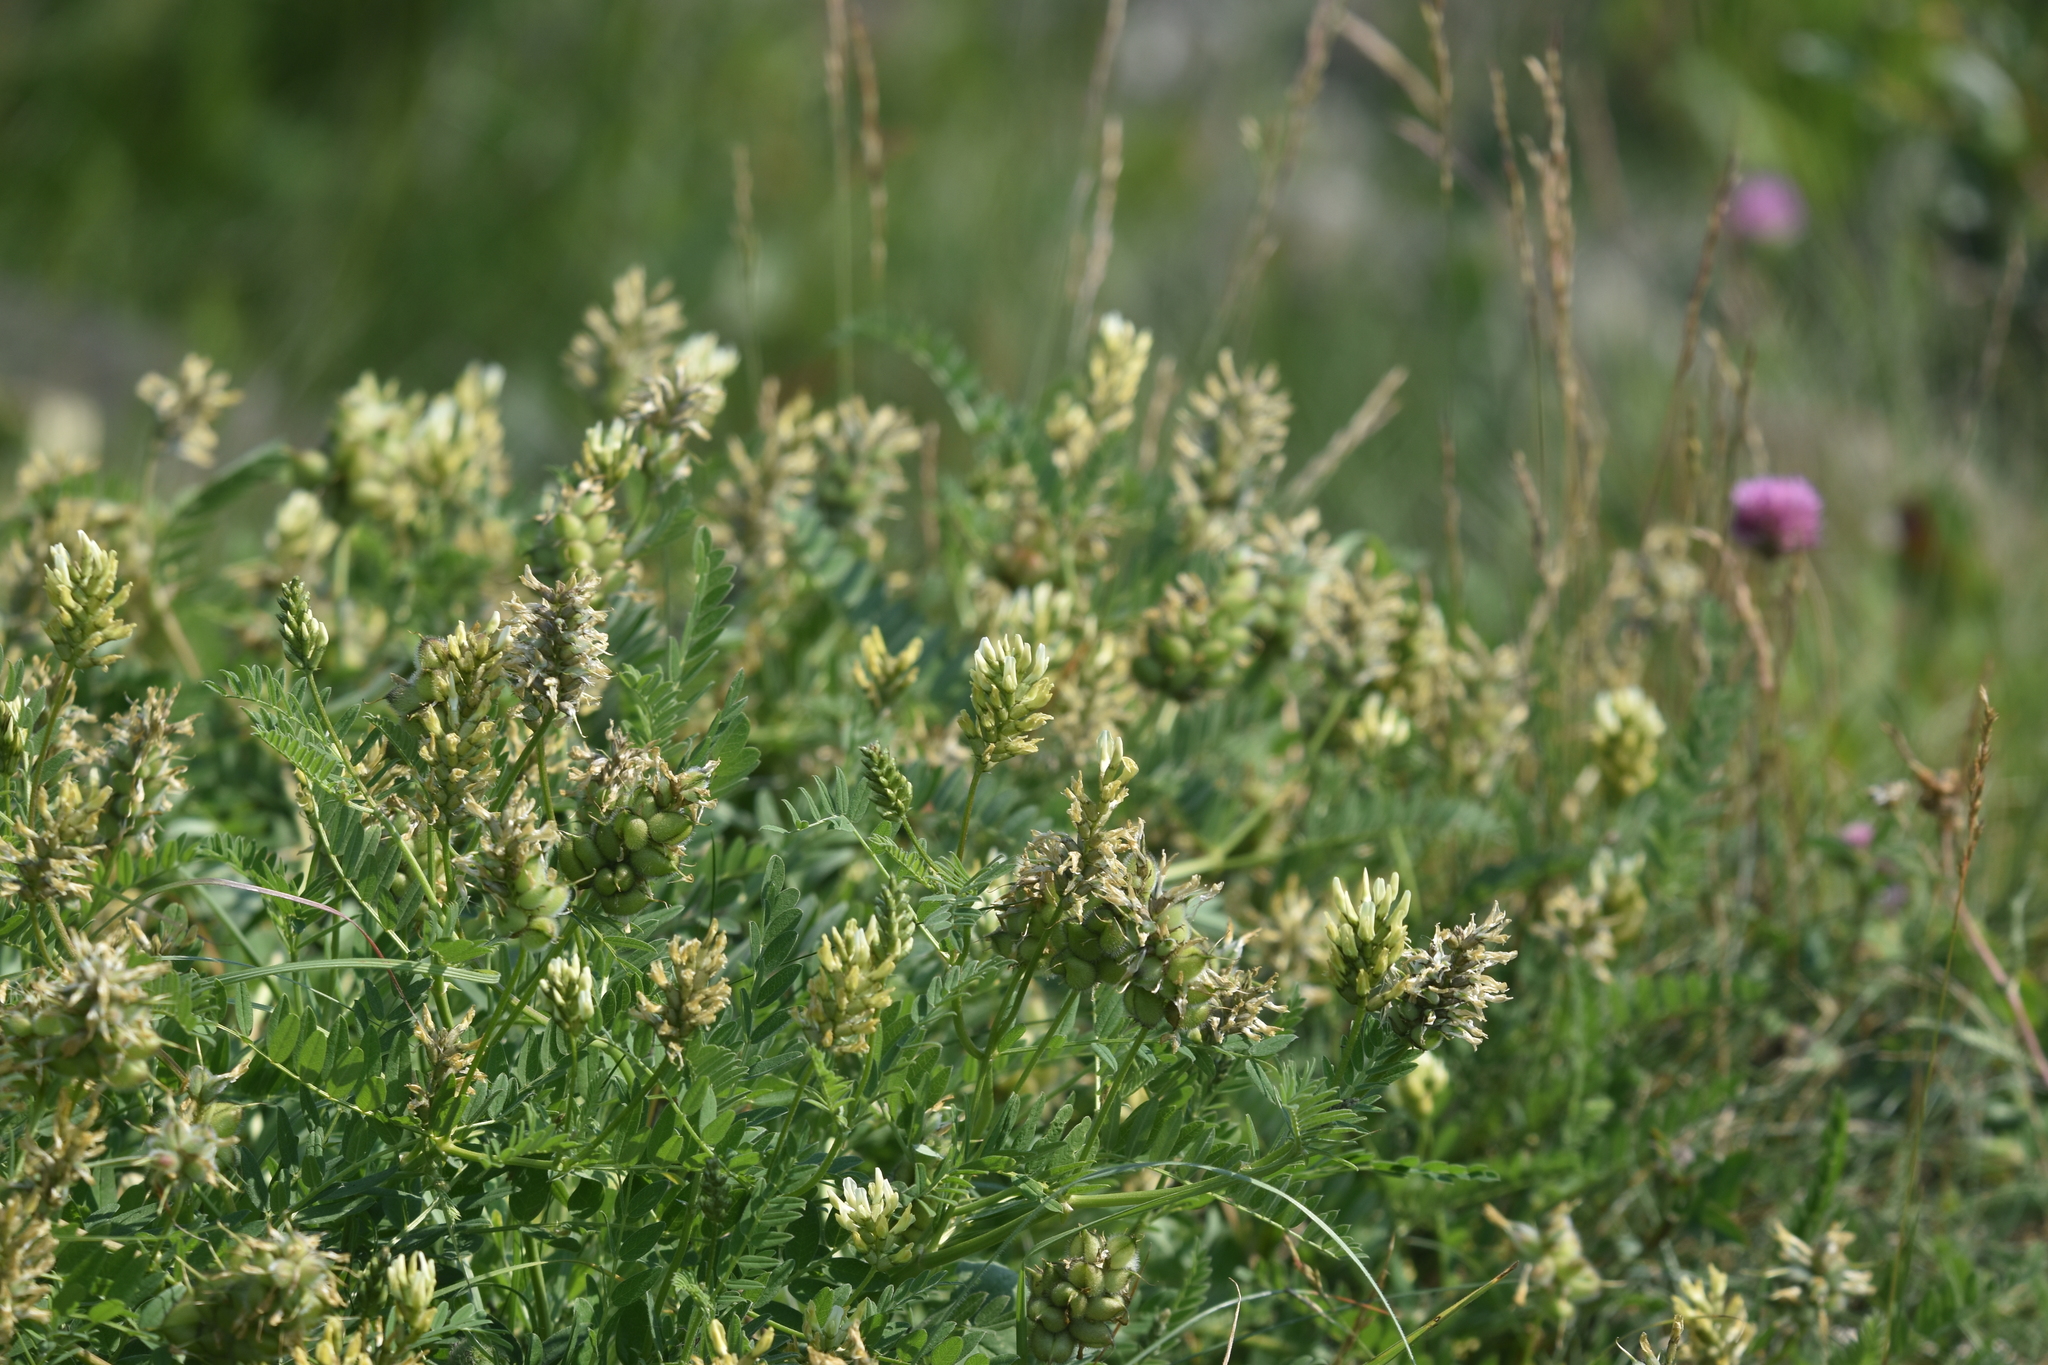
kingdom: Plantae
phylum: Tracheophyta
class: Magnoliopsida
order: Fabales
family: Fabaceae
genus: Astragalus
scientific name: Astragalus cicer
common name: Chick-pea milk-vetch
